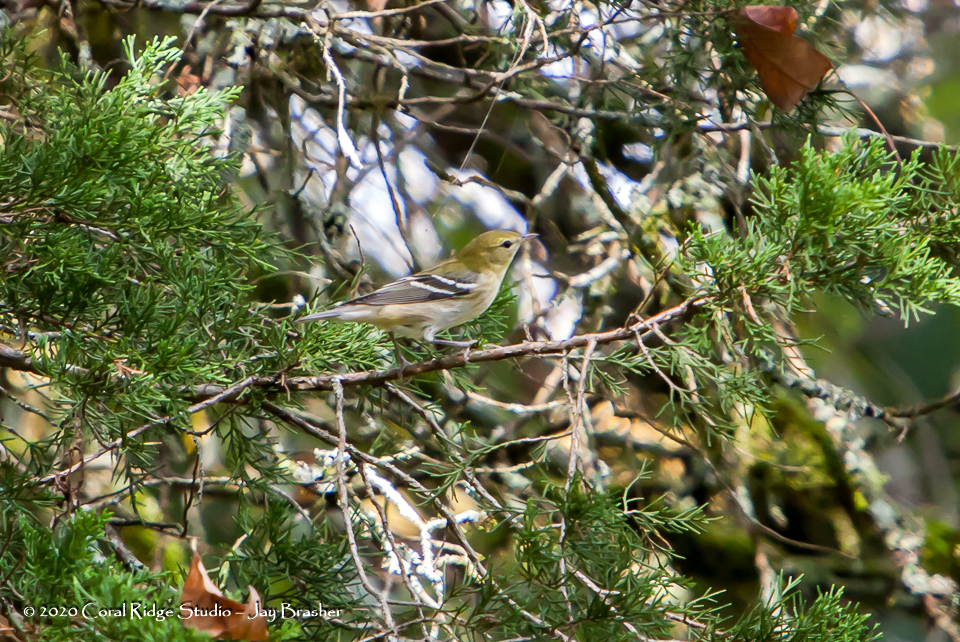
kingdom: Animalia
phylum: Chordata
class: Aves
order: Passeriformes
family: Parulidae
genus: Setophaga
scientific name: Setophaga castanea
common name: Bay-breasted warbler
